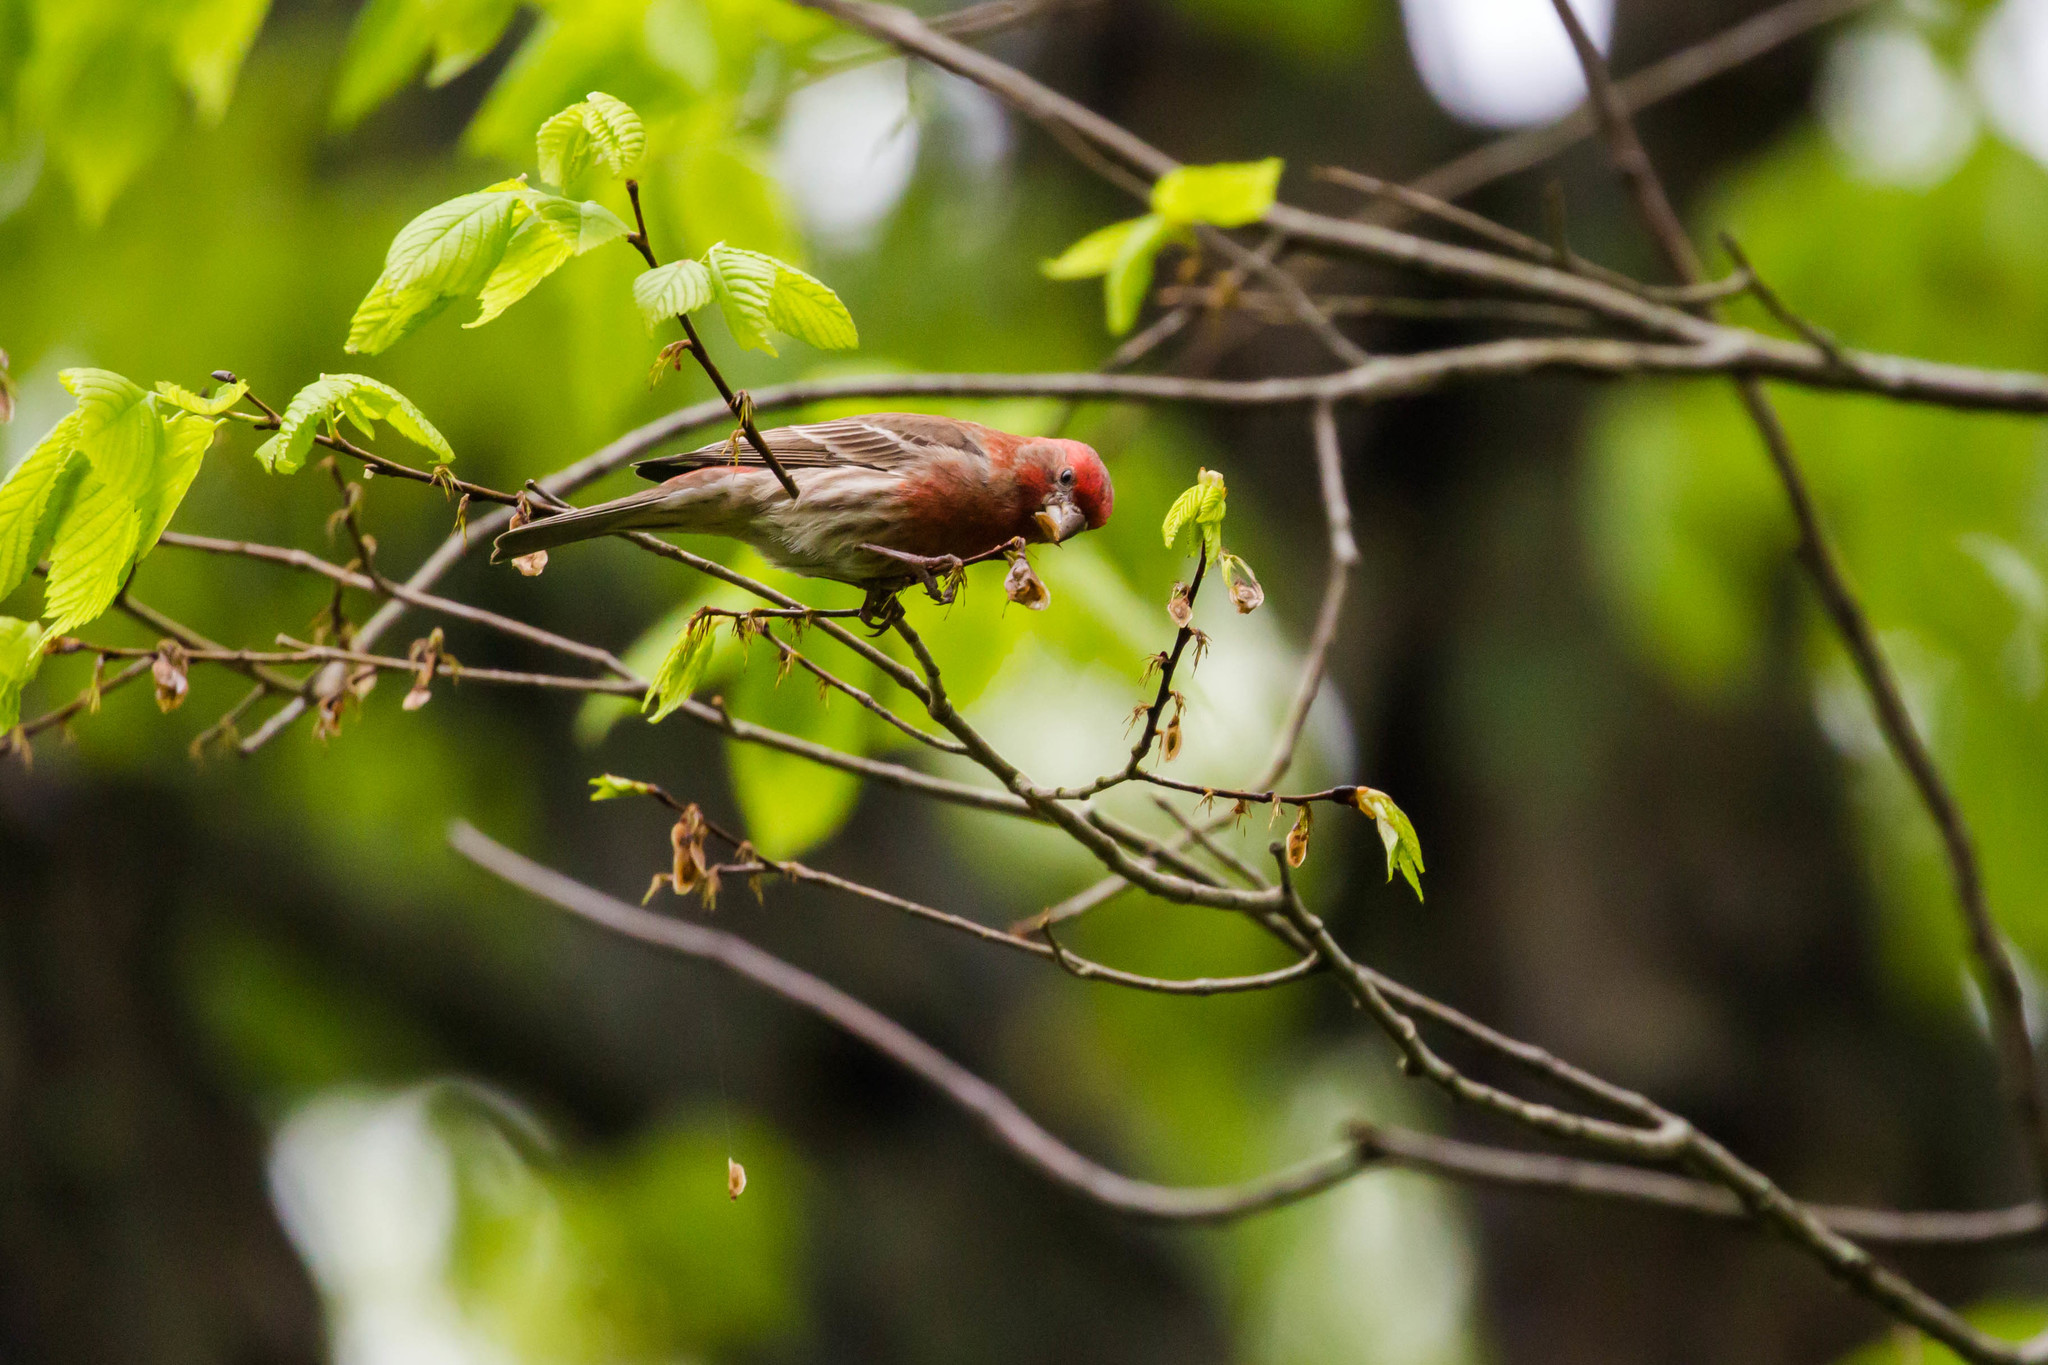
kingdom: Animalia
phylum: Chordata
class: Aves
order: Passeriformes
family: Fringillidae
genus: Haemorhous
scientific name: Haemorhous mexicanus
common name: House finch
